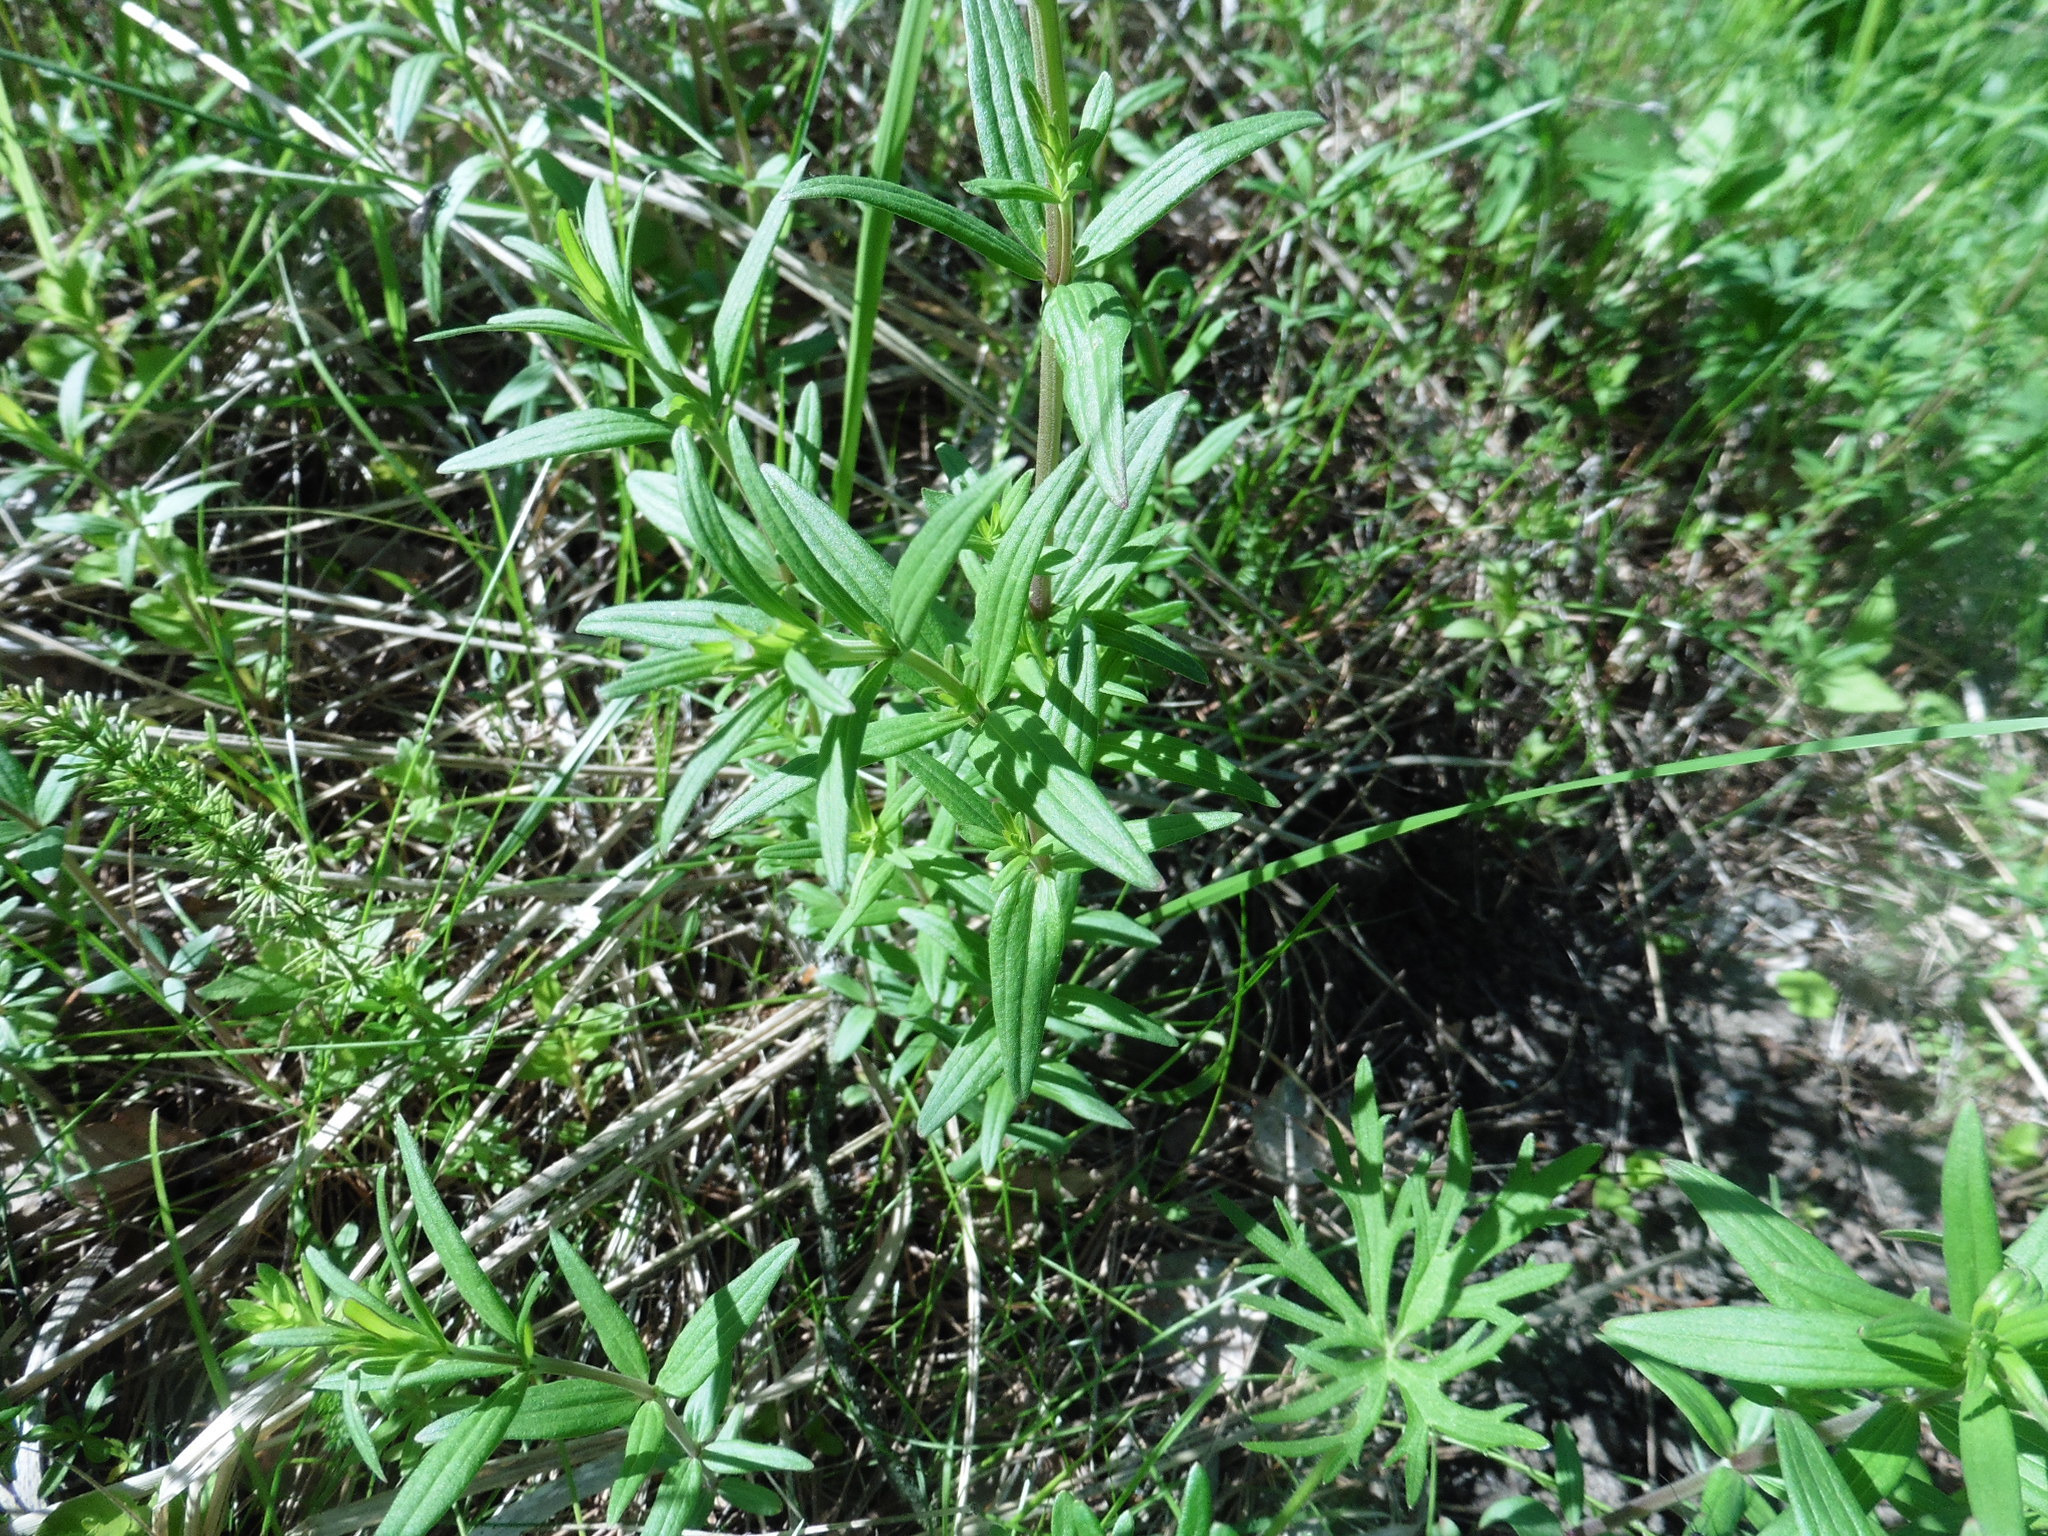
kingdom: Plantae
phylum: Tracheophyta
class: Magnoliopsida
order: Gentianales
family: Rubiaceae
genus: Galium
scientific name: Galium boreale
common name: Northern bedstraw
